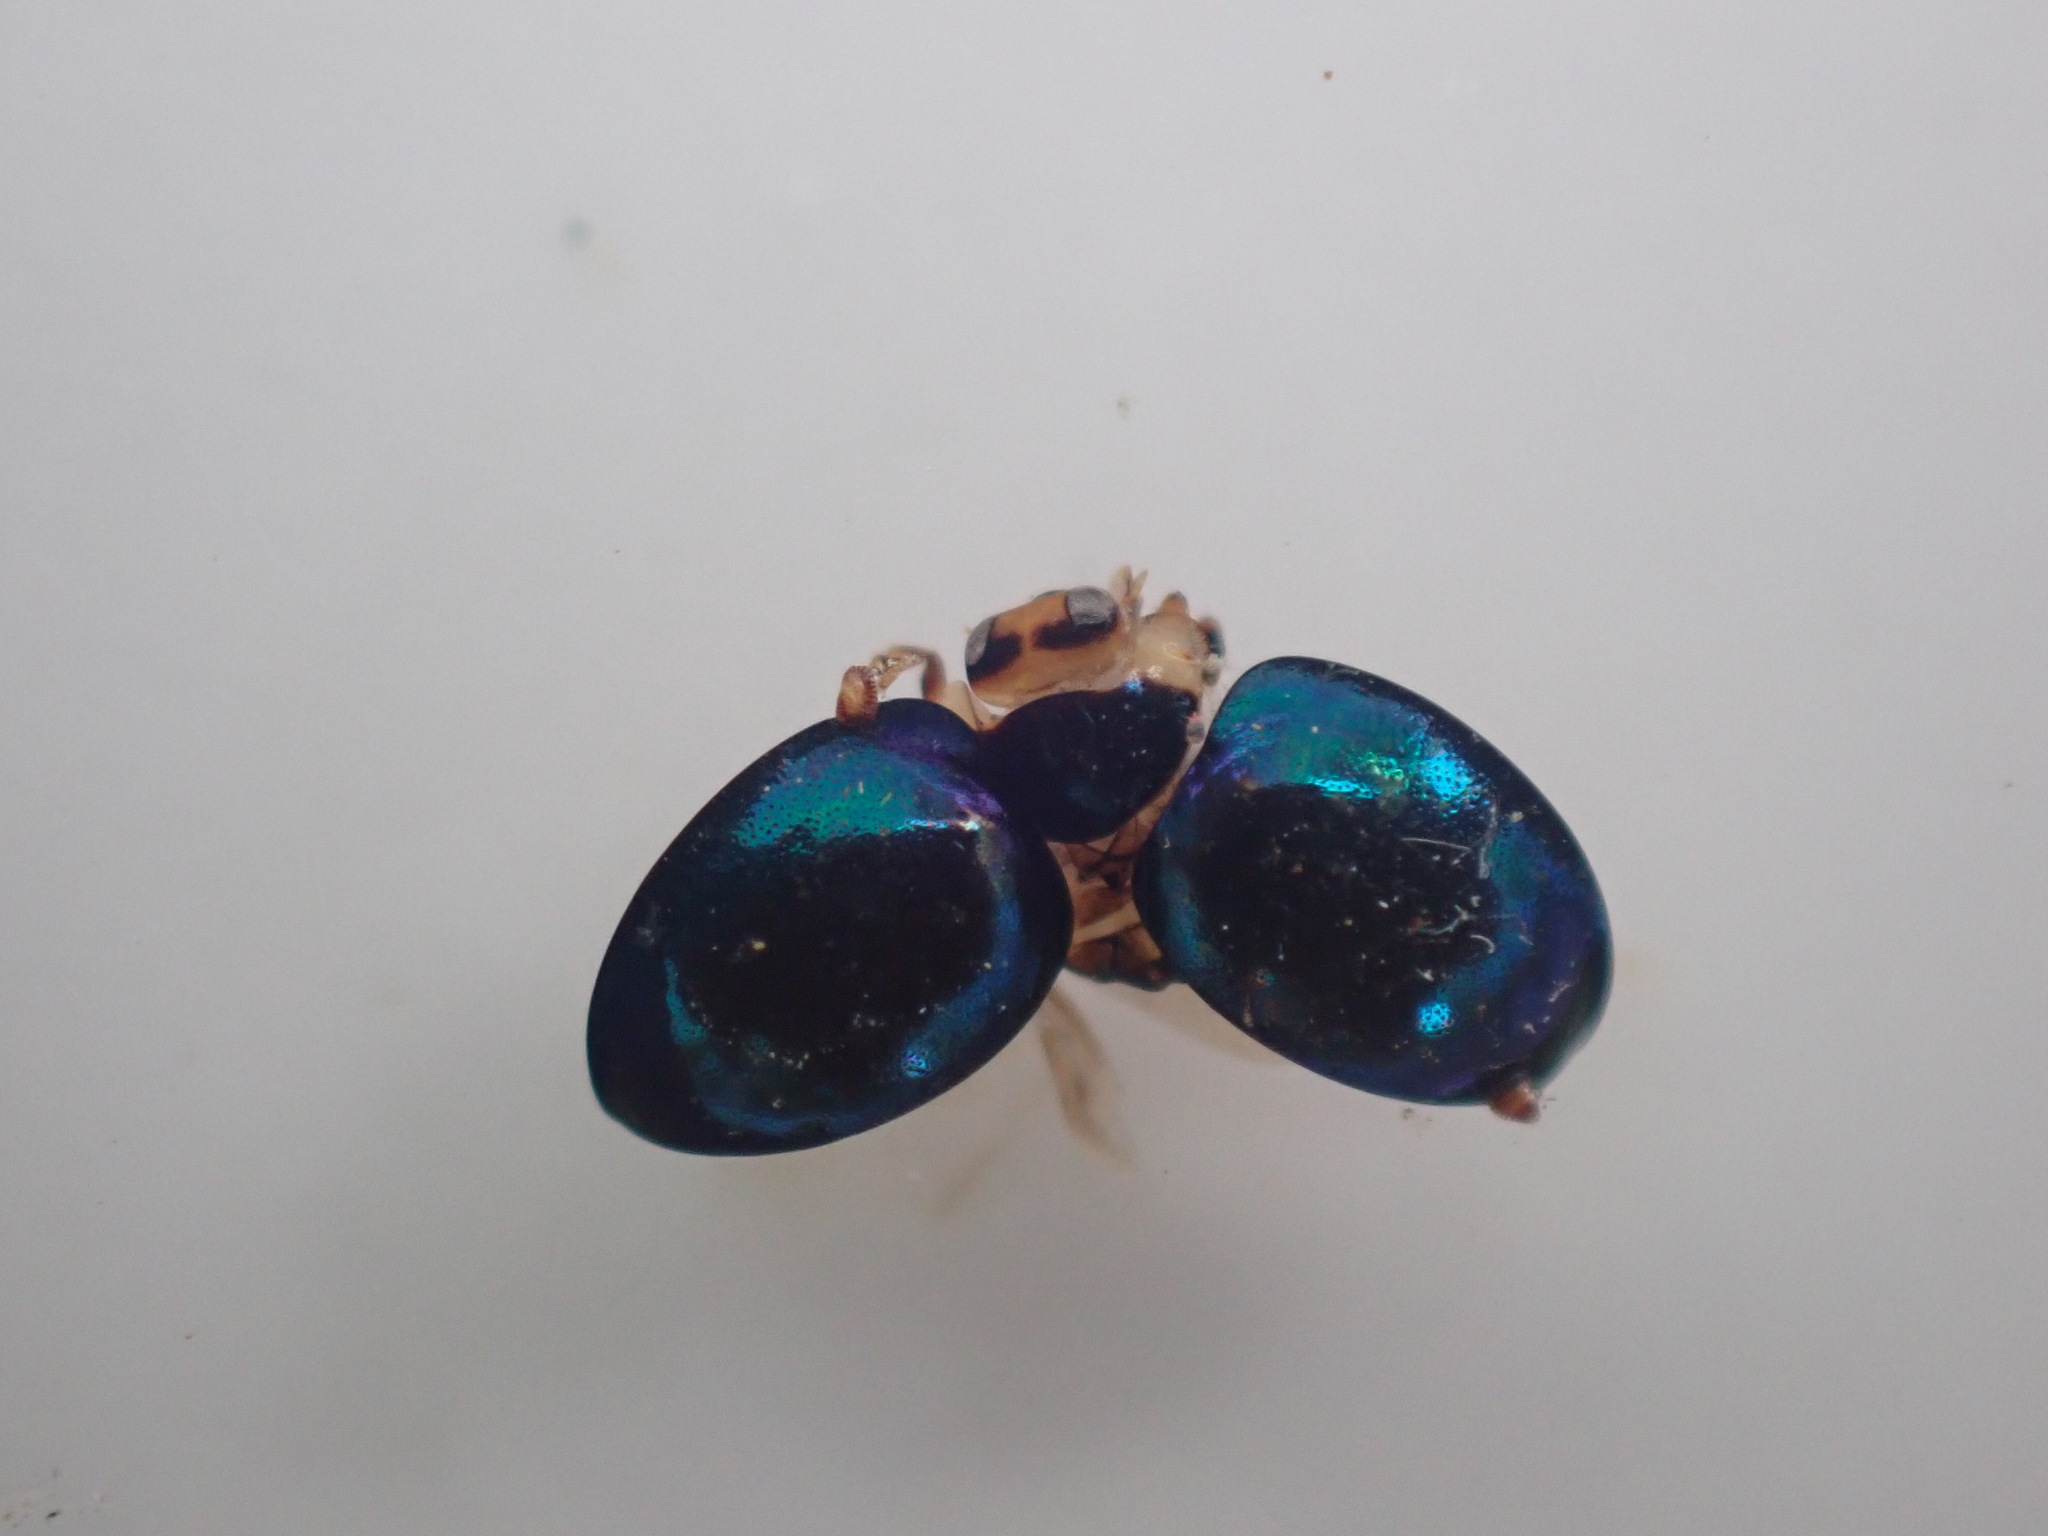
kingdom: Animalia
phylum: Arthropoda
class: Insecta
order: Coleoptera
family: Coccinellidae
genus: Halmus
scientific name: Halmus chalybeus
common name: Steel blue ladybird beetle
